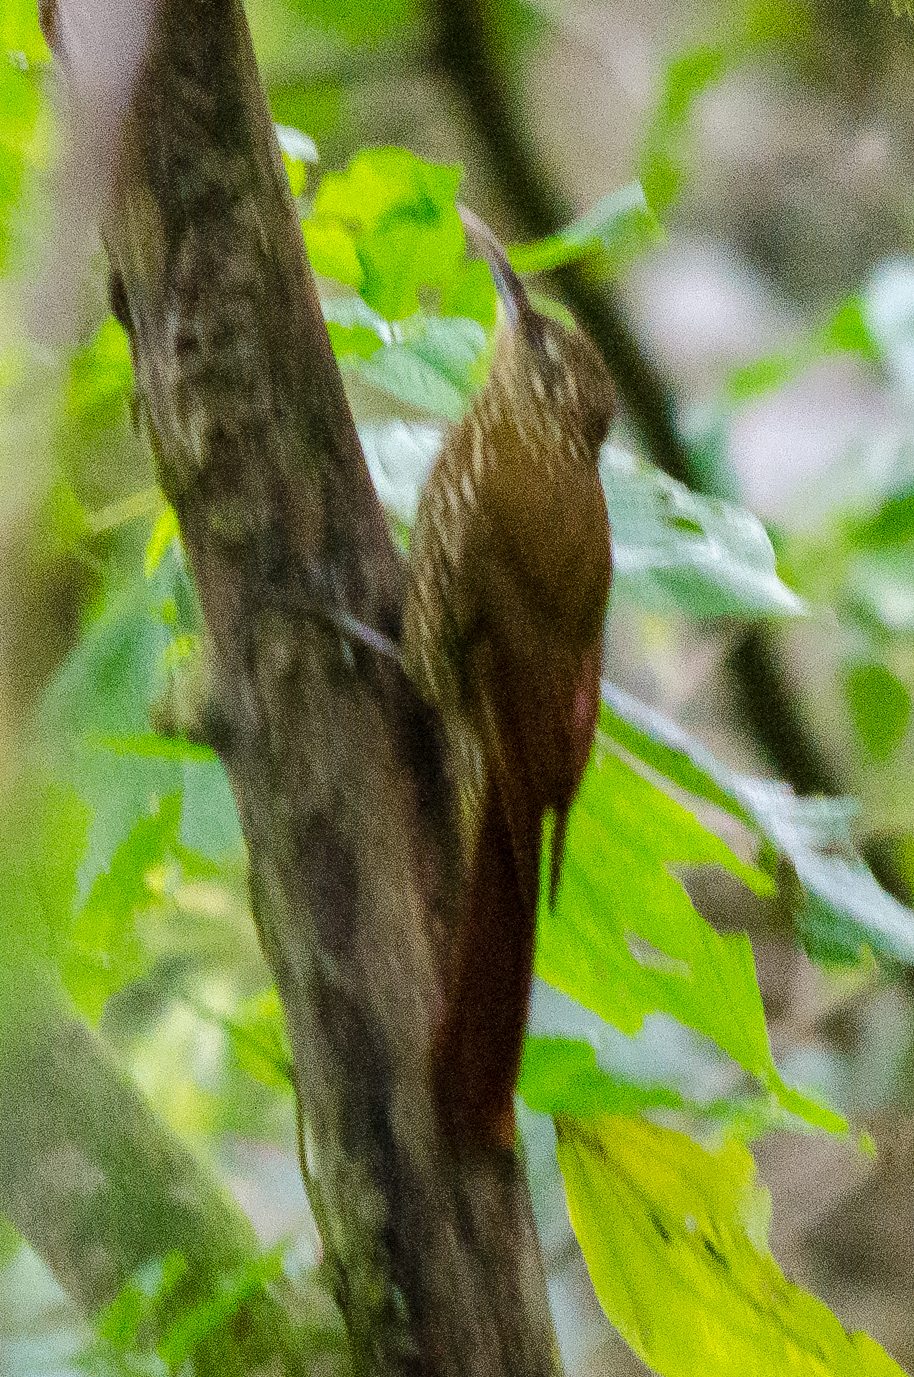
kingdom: Animalia
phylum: Chordata
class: Aves
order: Passeriformes
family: Furnariidae
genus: Lepidocolaptes
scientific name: Lepidocolaptes affinis
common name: Spot-crowned woodcreeper
